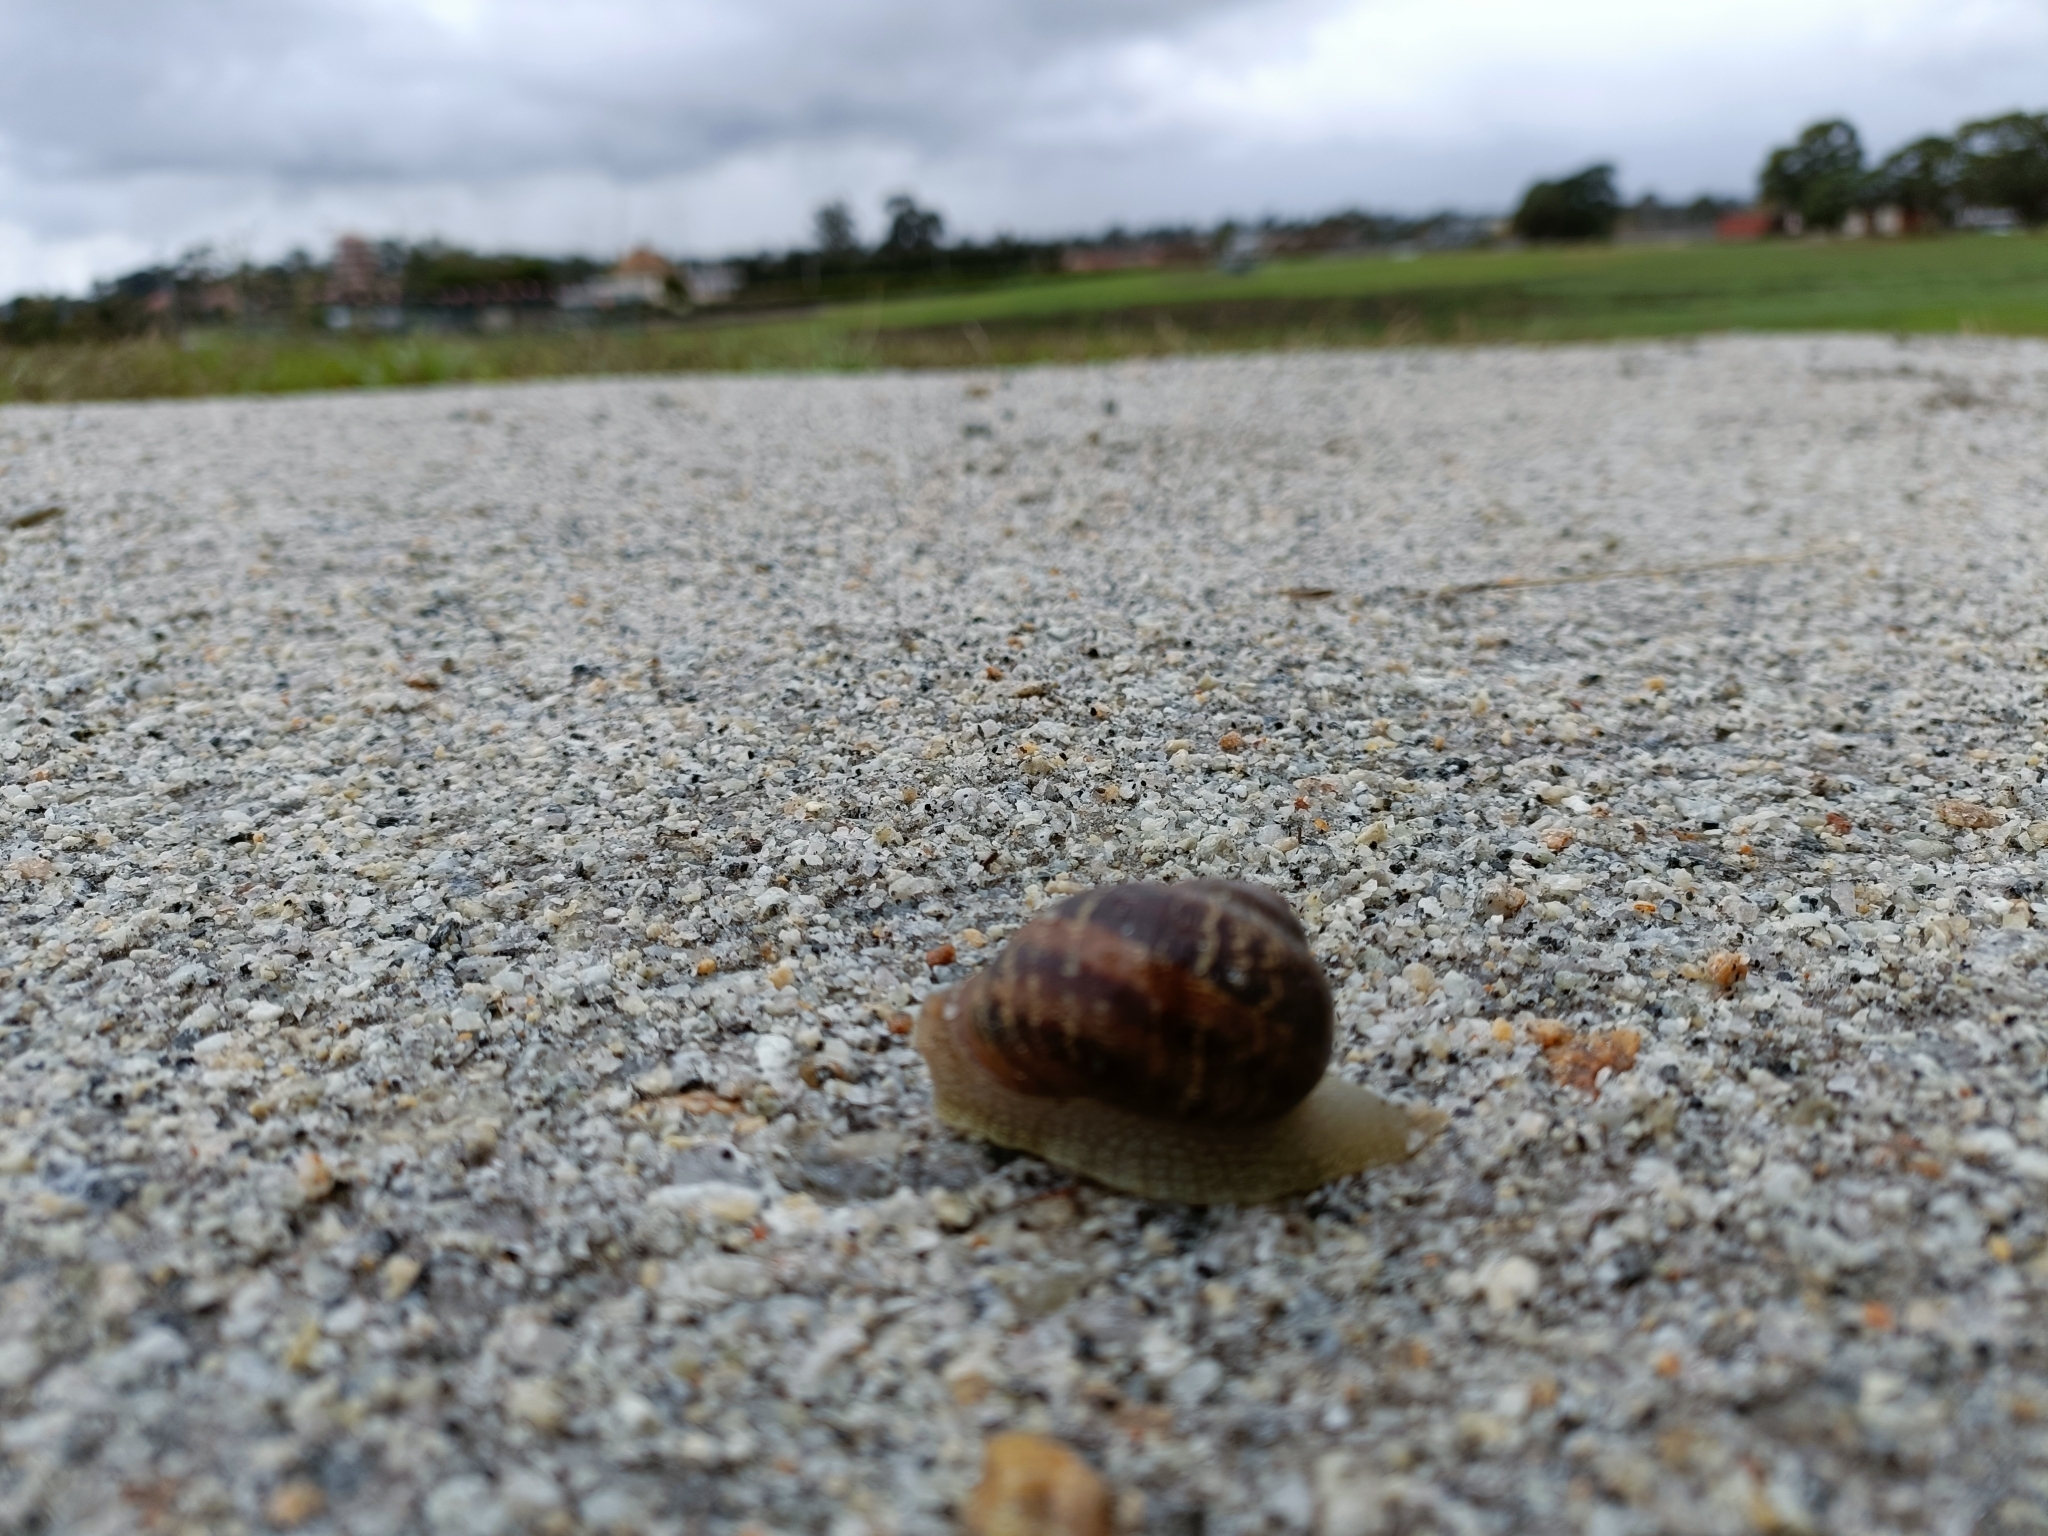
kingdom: Animalia
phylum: Mollusca
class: Gastropoda
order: Stylommatophora
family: Helicidae
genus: Cornu
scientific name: Cornu aspersum
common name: Brown garden snail
